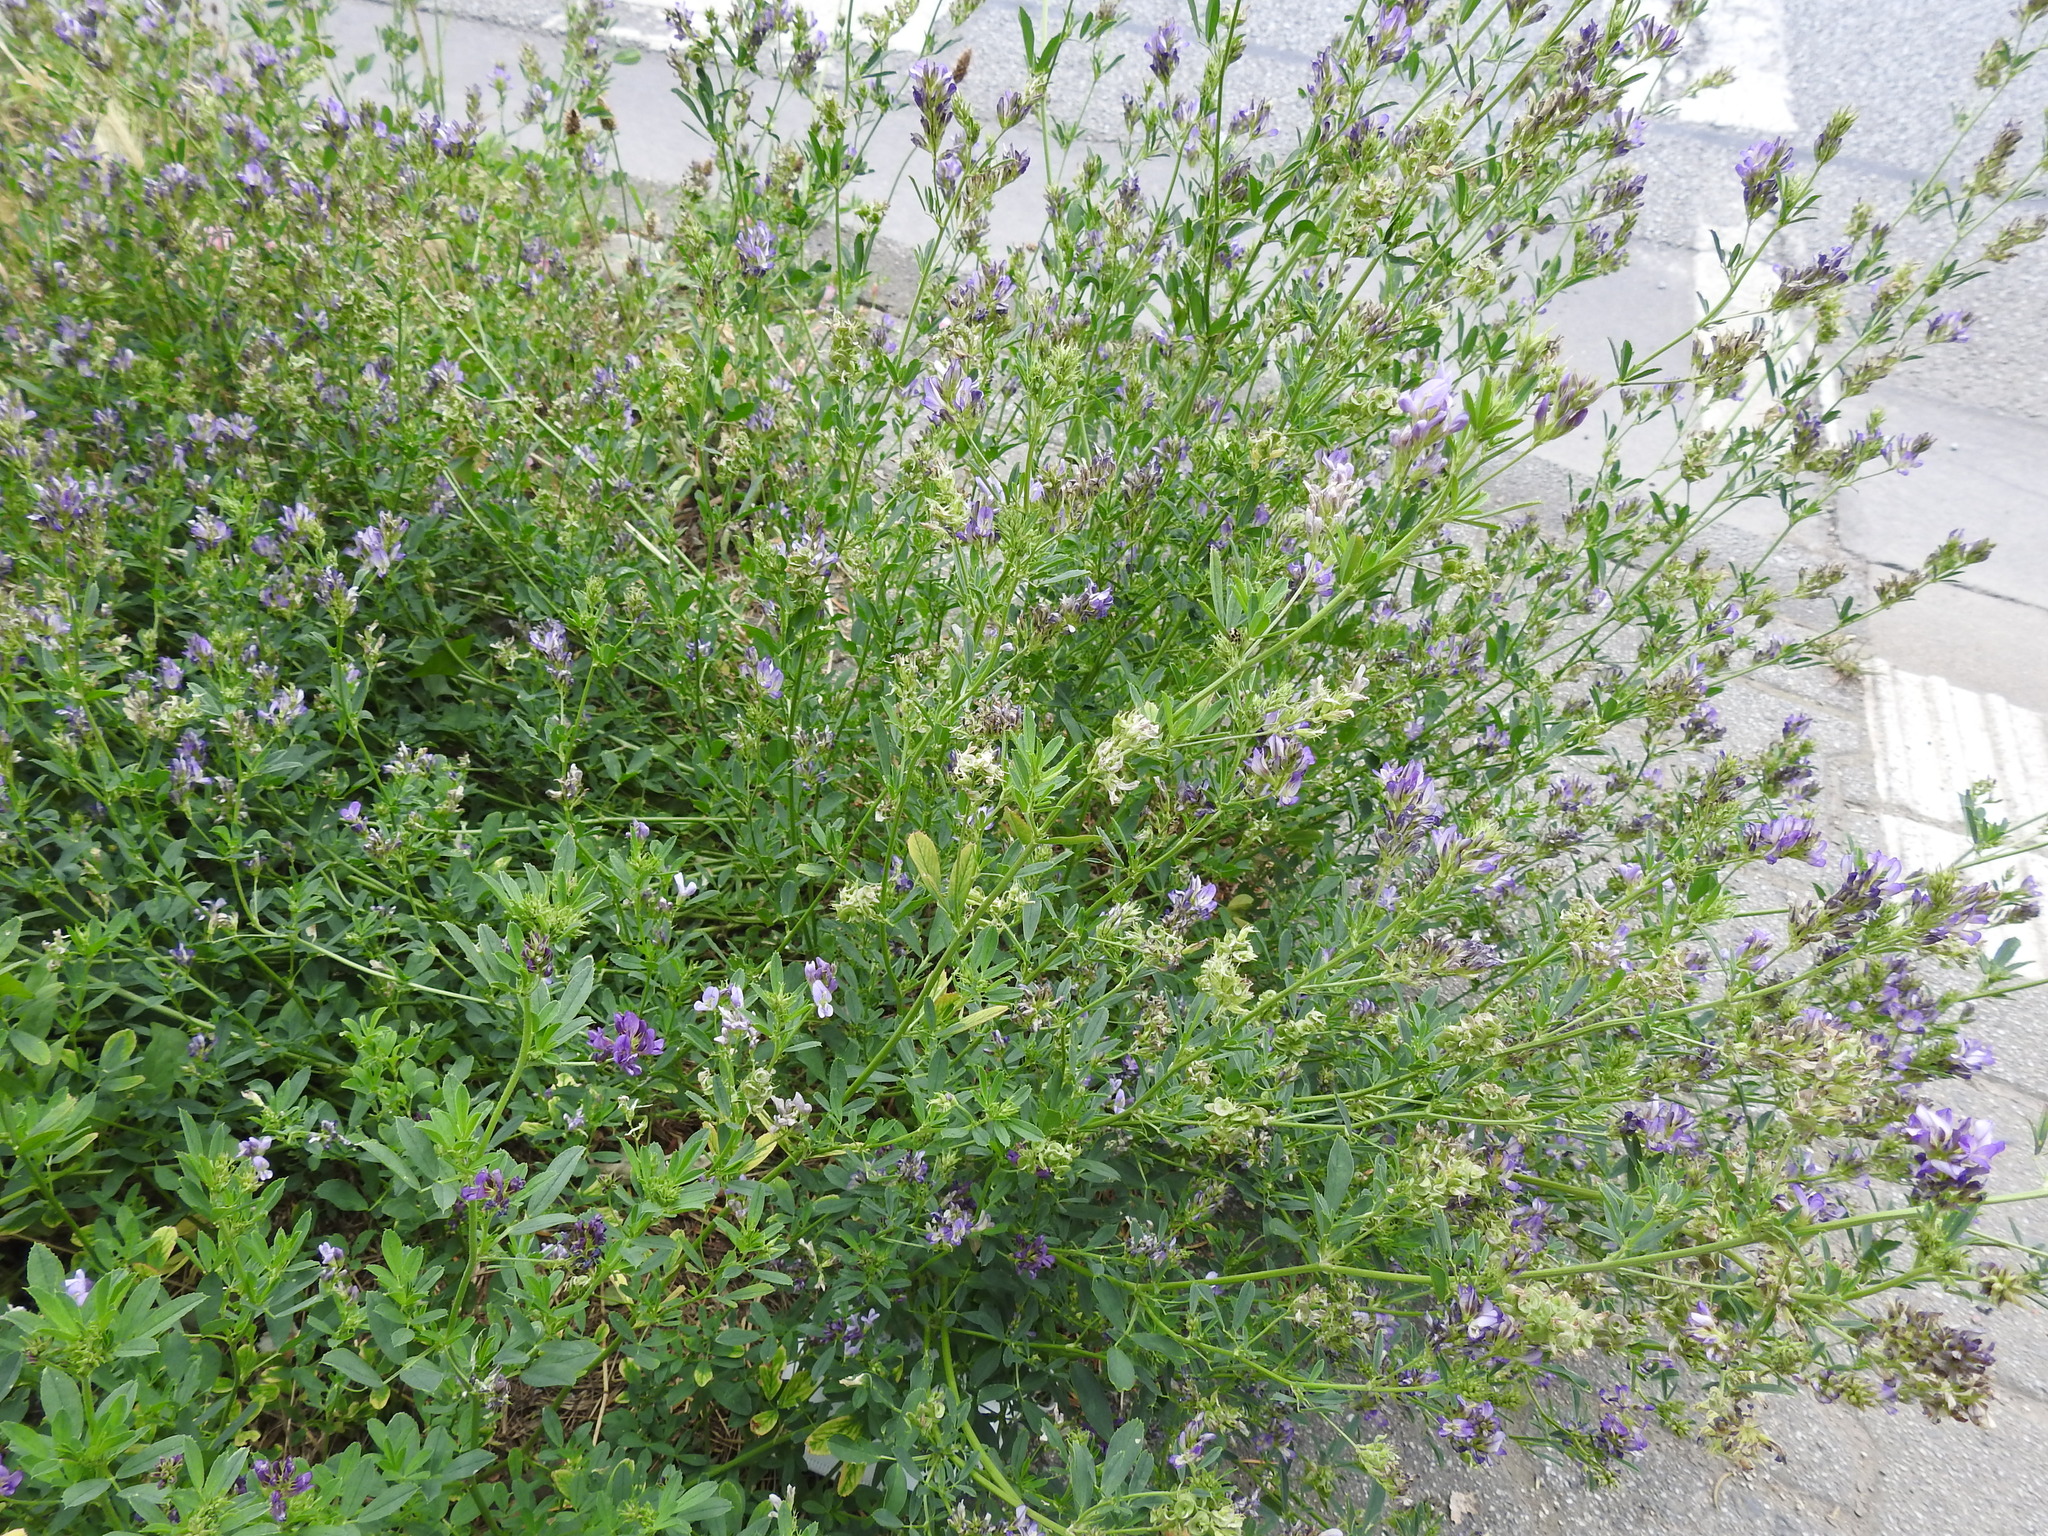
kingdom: Plantae
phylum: Tracheophyta
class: Magnoliopsida
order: Fabales
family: Fabaceae
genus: Medicago
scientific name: Medicago sativa
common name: Alfalfa
